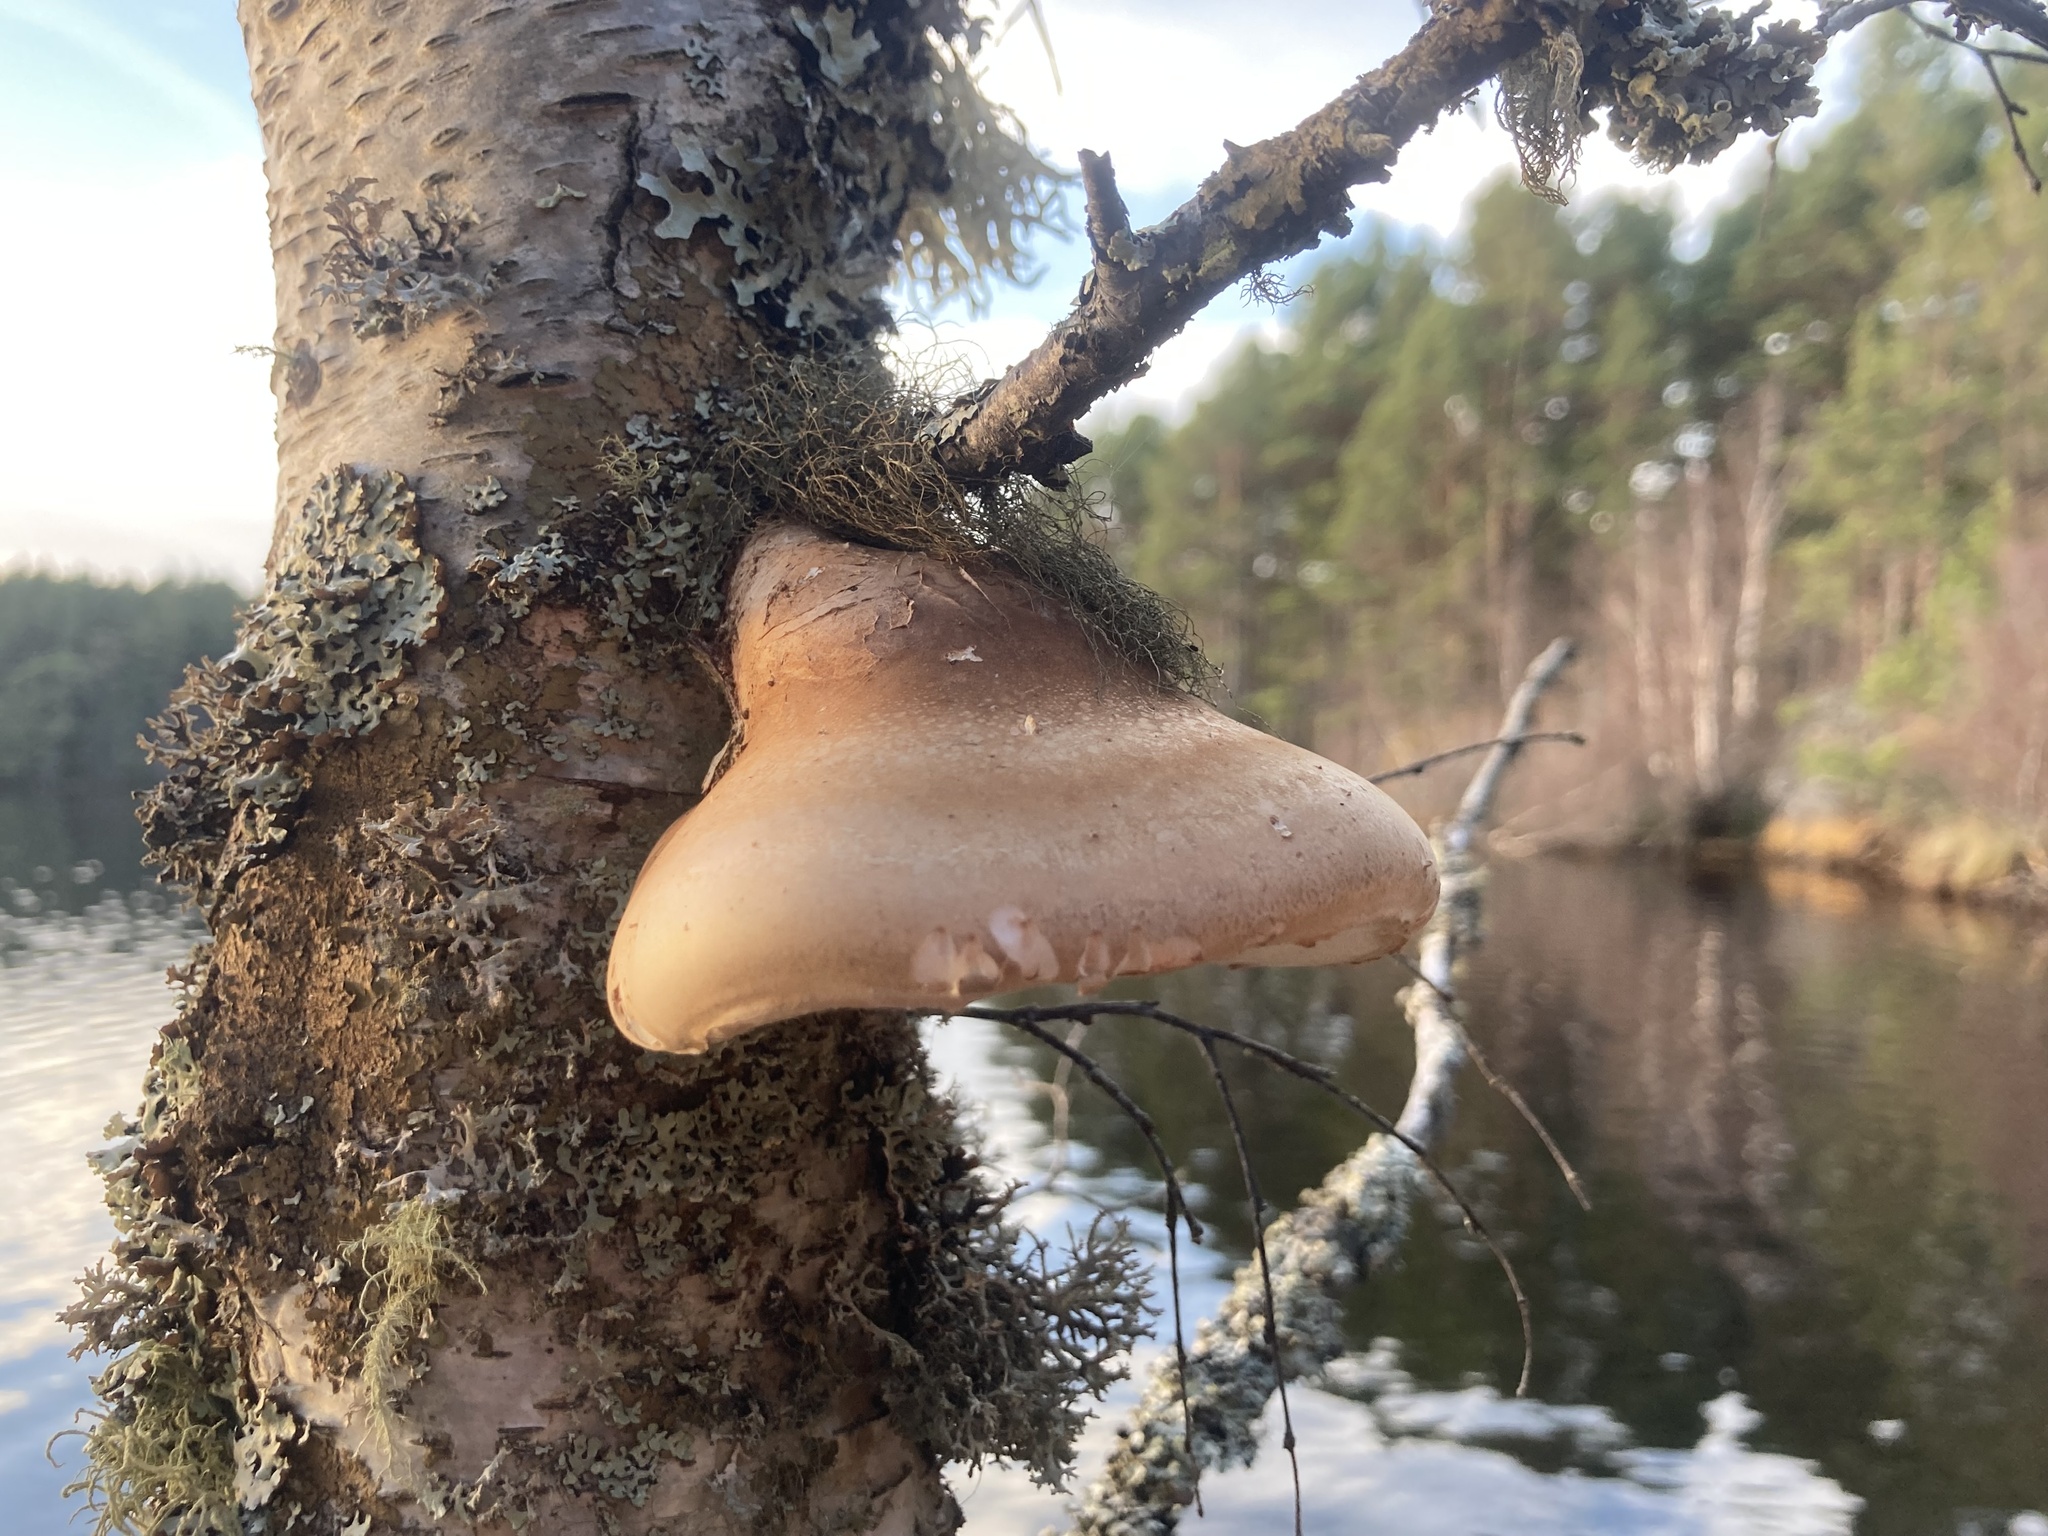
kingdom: Fungi
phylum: Basidiomycota
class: Agaricomycetes
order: Polyporales
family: Fomitopsidaceae
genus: Fomitopsis
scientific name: Fomitopsis betulina
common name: Birch polypore
